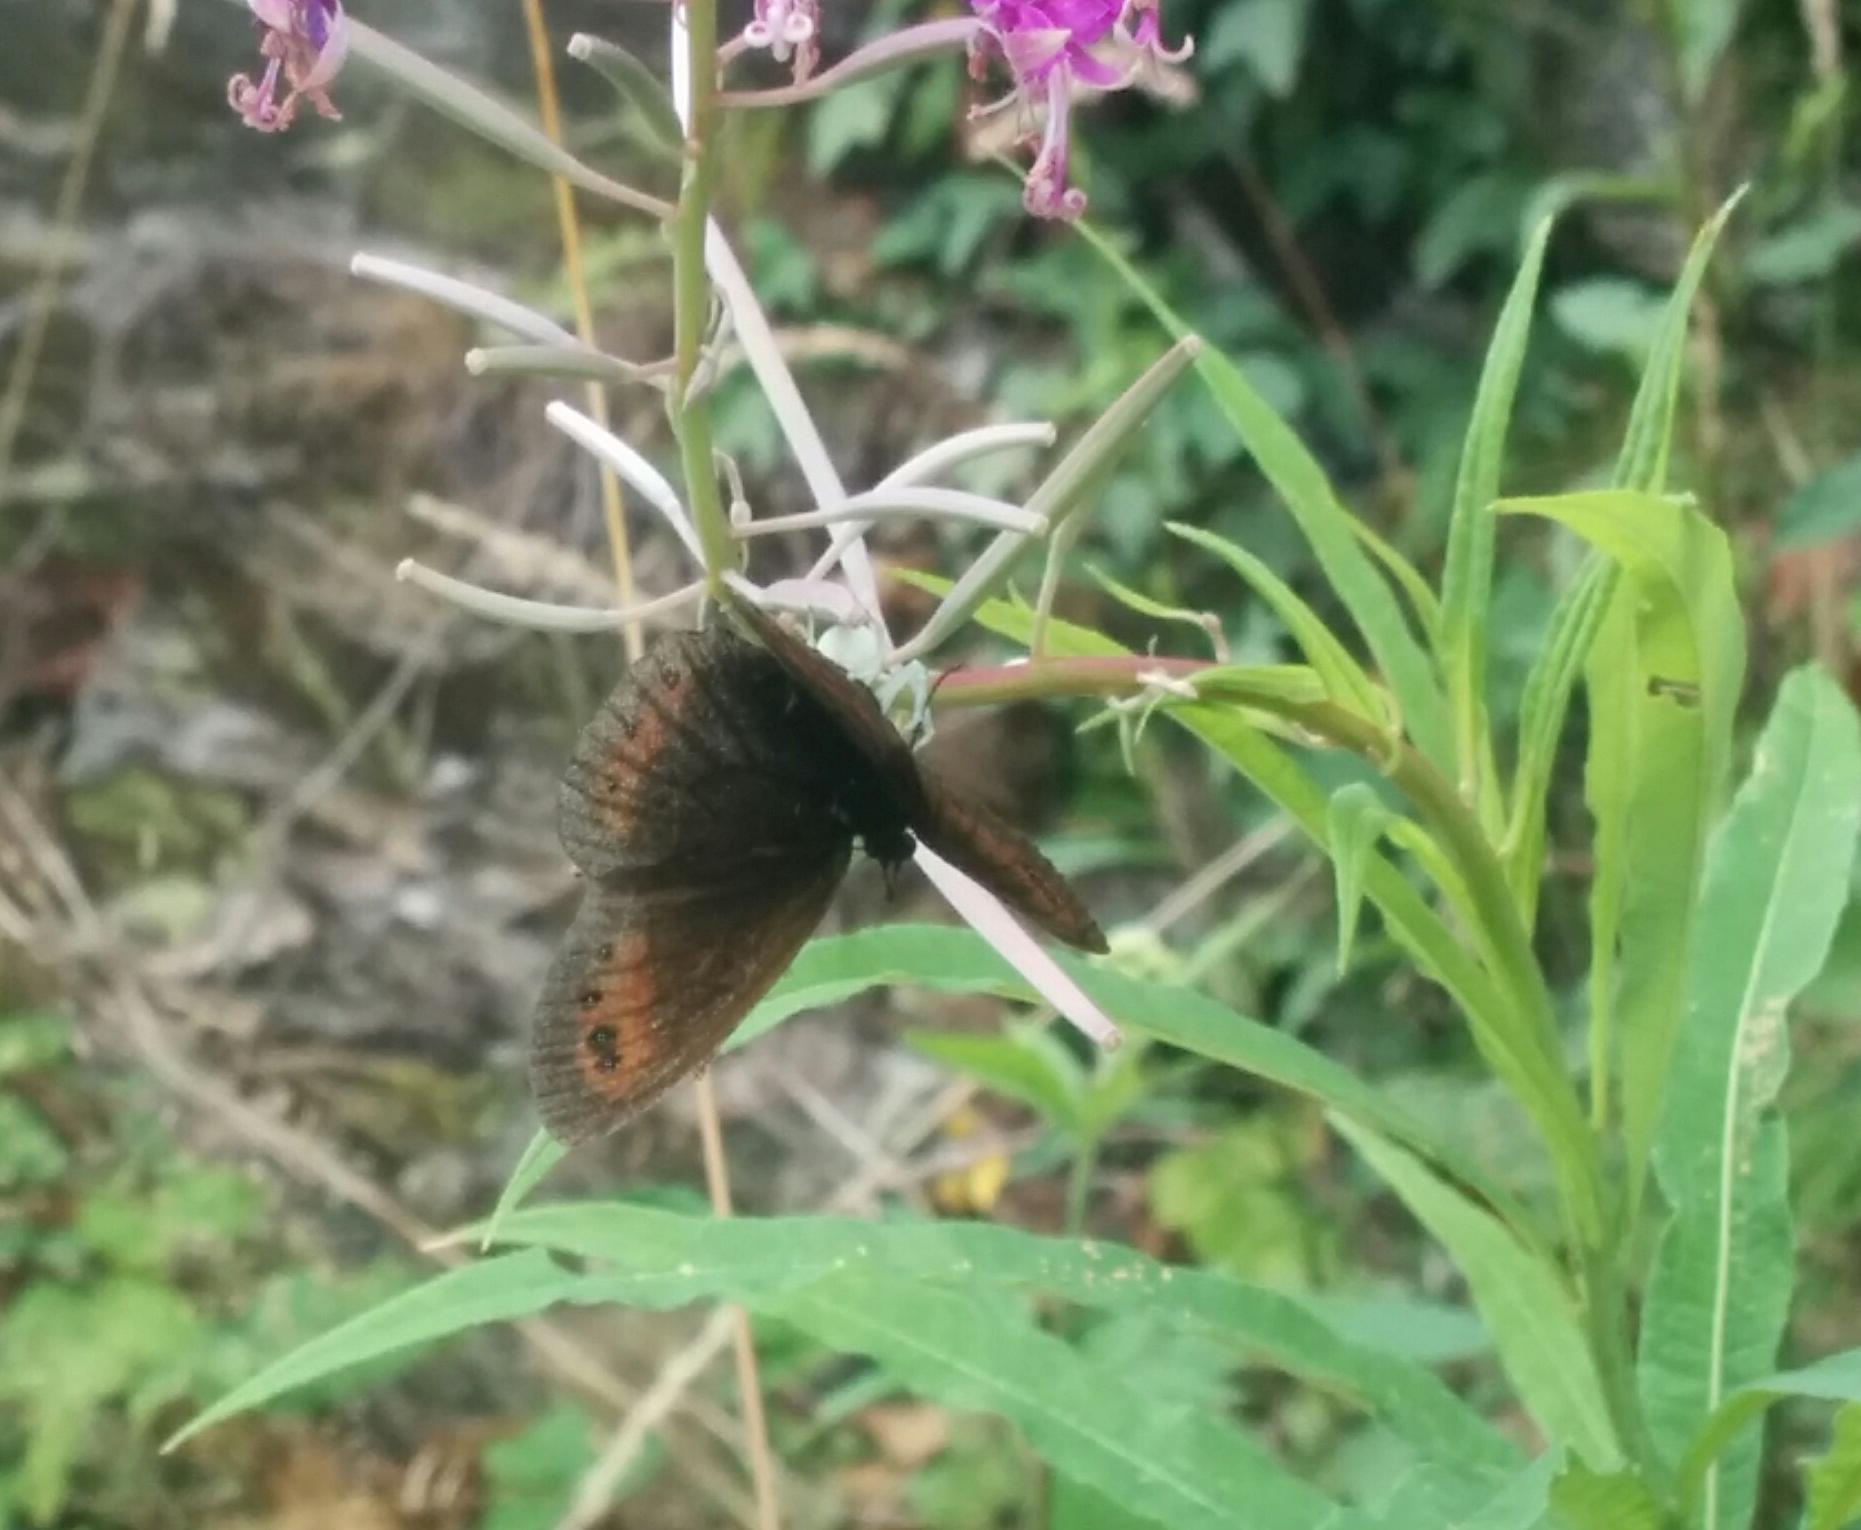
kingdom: Animalia
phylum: Arthropoda
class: Insecta
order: Lepidoptera
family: Nymphalidae
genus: Erebia
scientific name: Erebia ligea
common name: Arran brown
